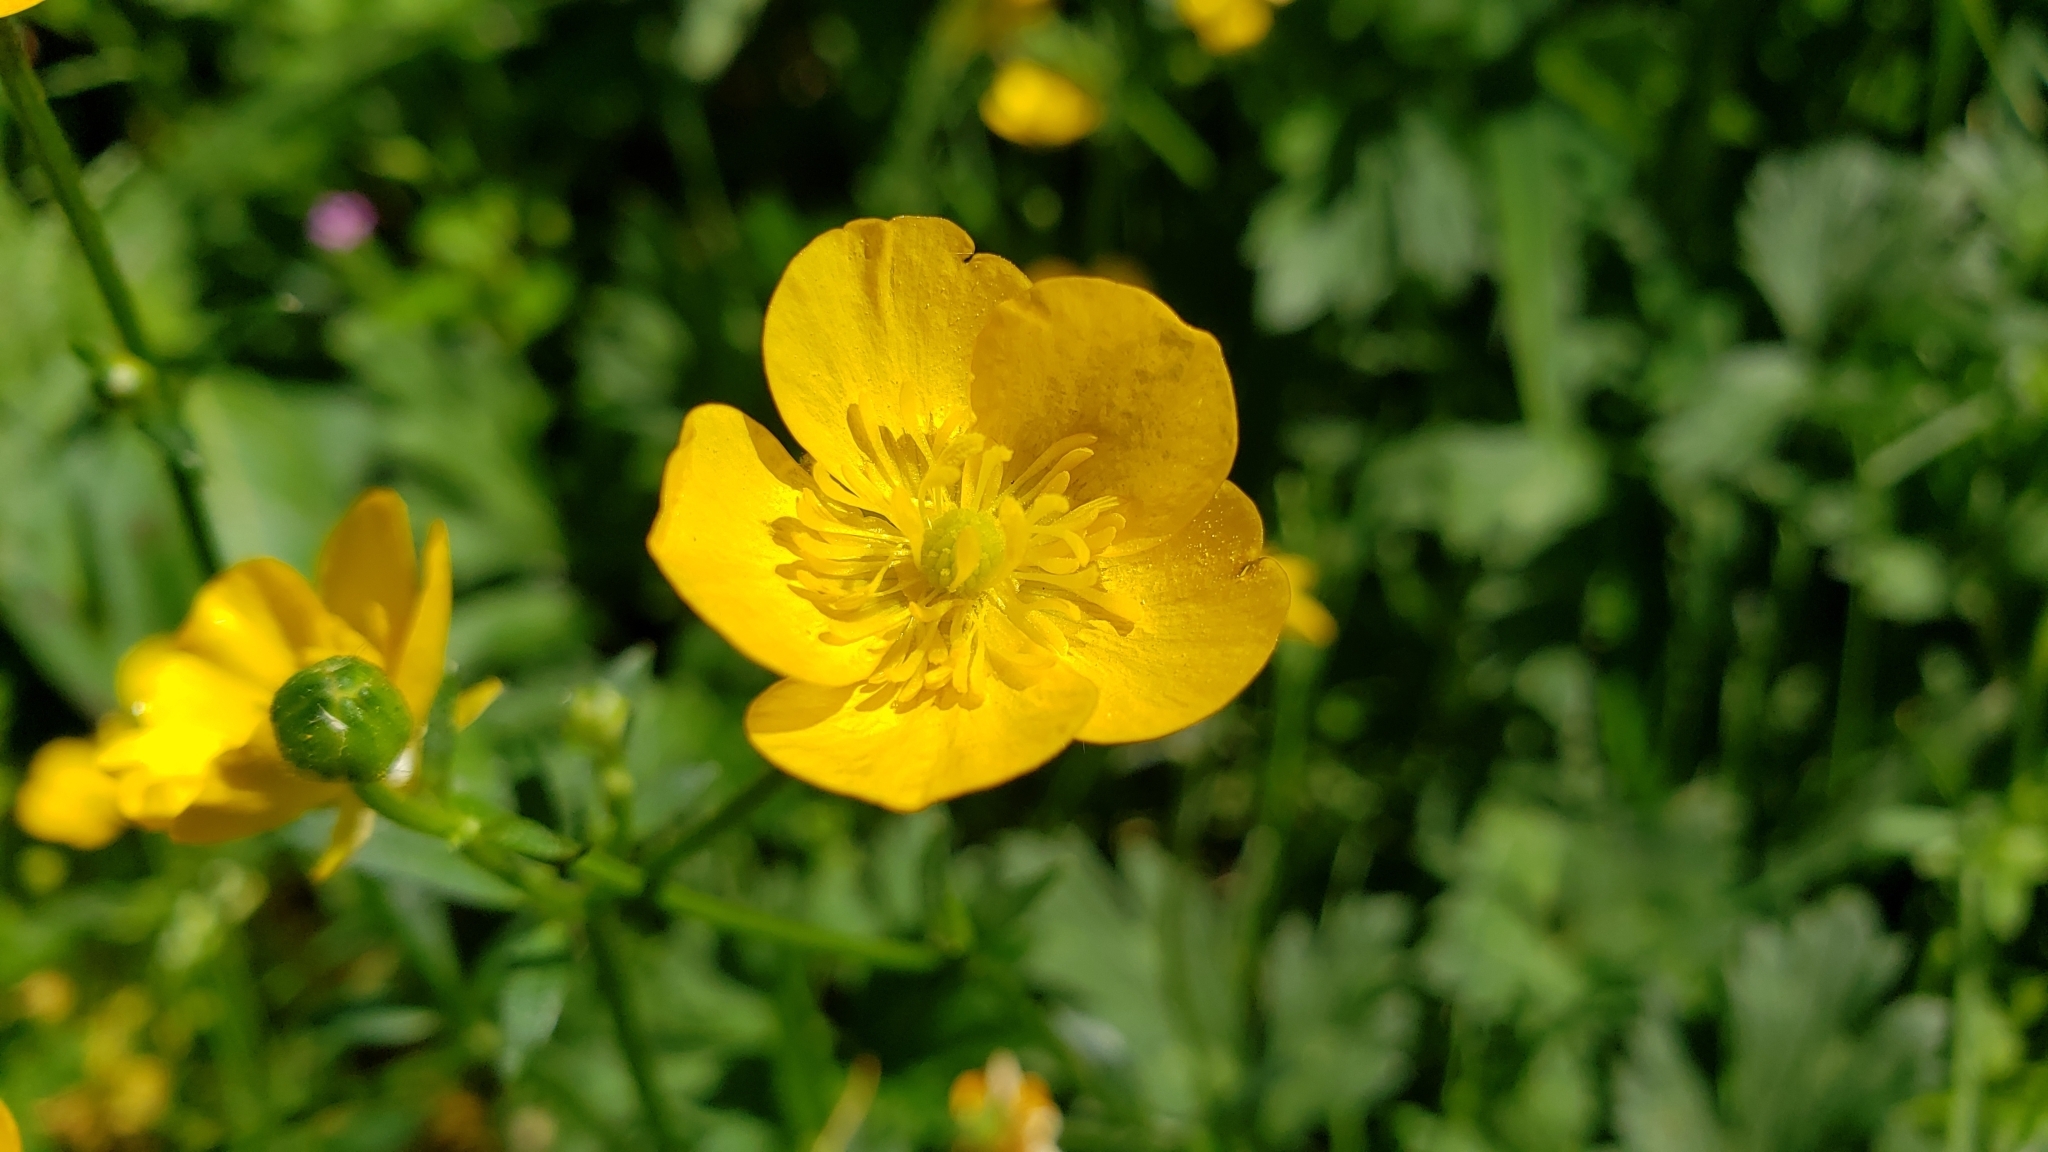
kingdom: Plantae
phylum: Tracheophyta
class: Magnoliopsida
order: Ranunculales
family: Ranunculaceae
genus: Ranunculus
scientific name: Ranunculus repens
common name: Creeping buttercup
